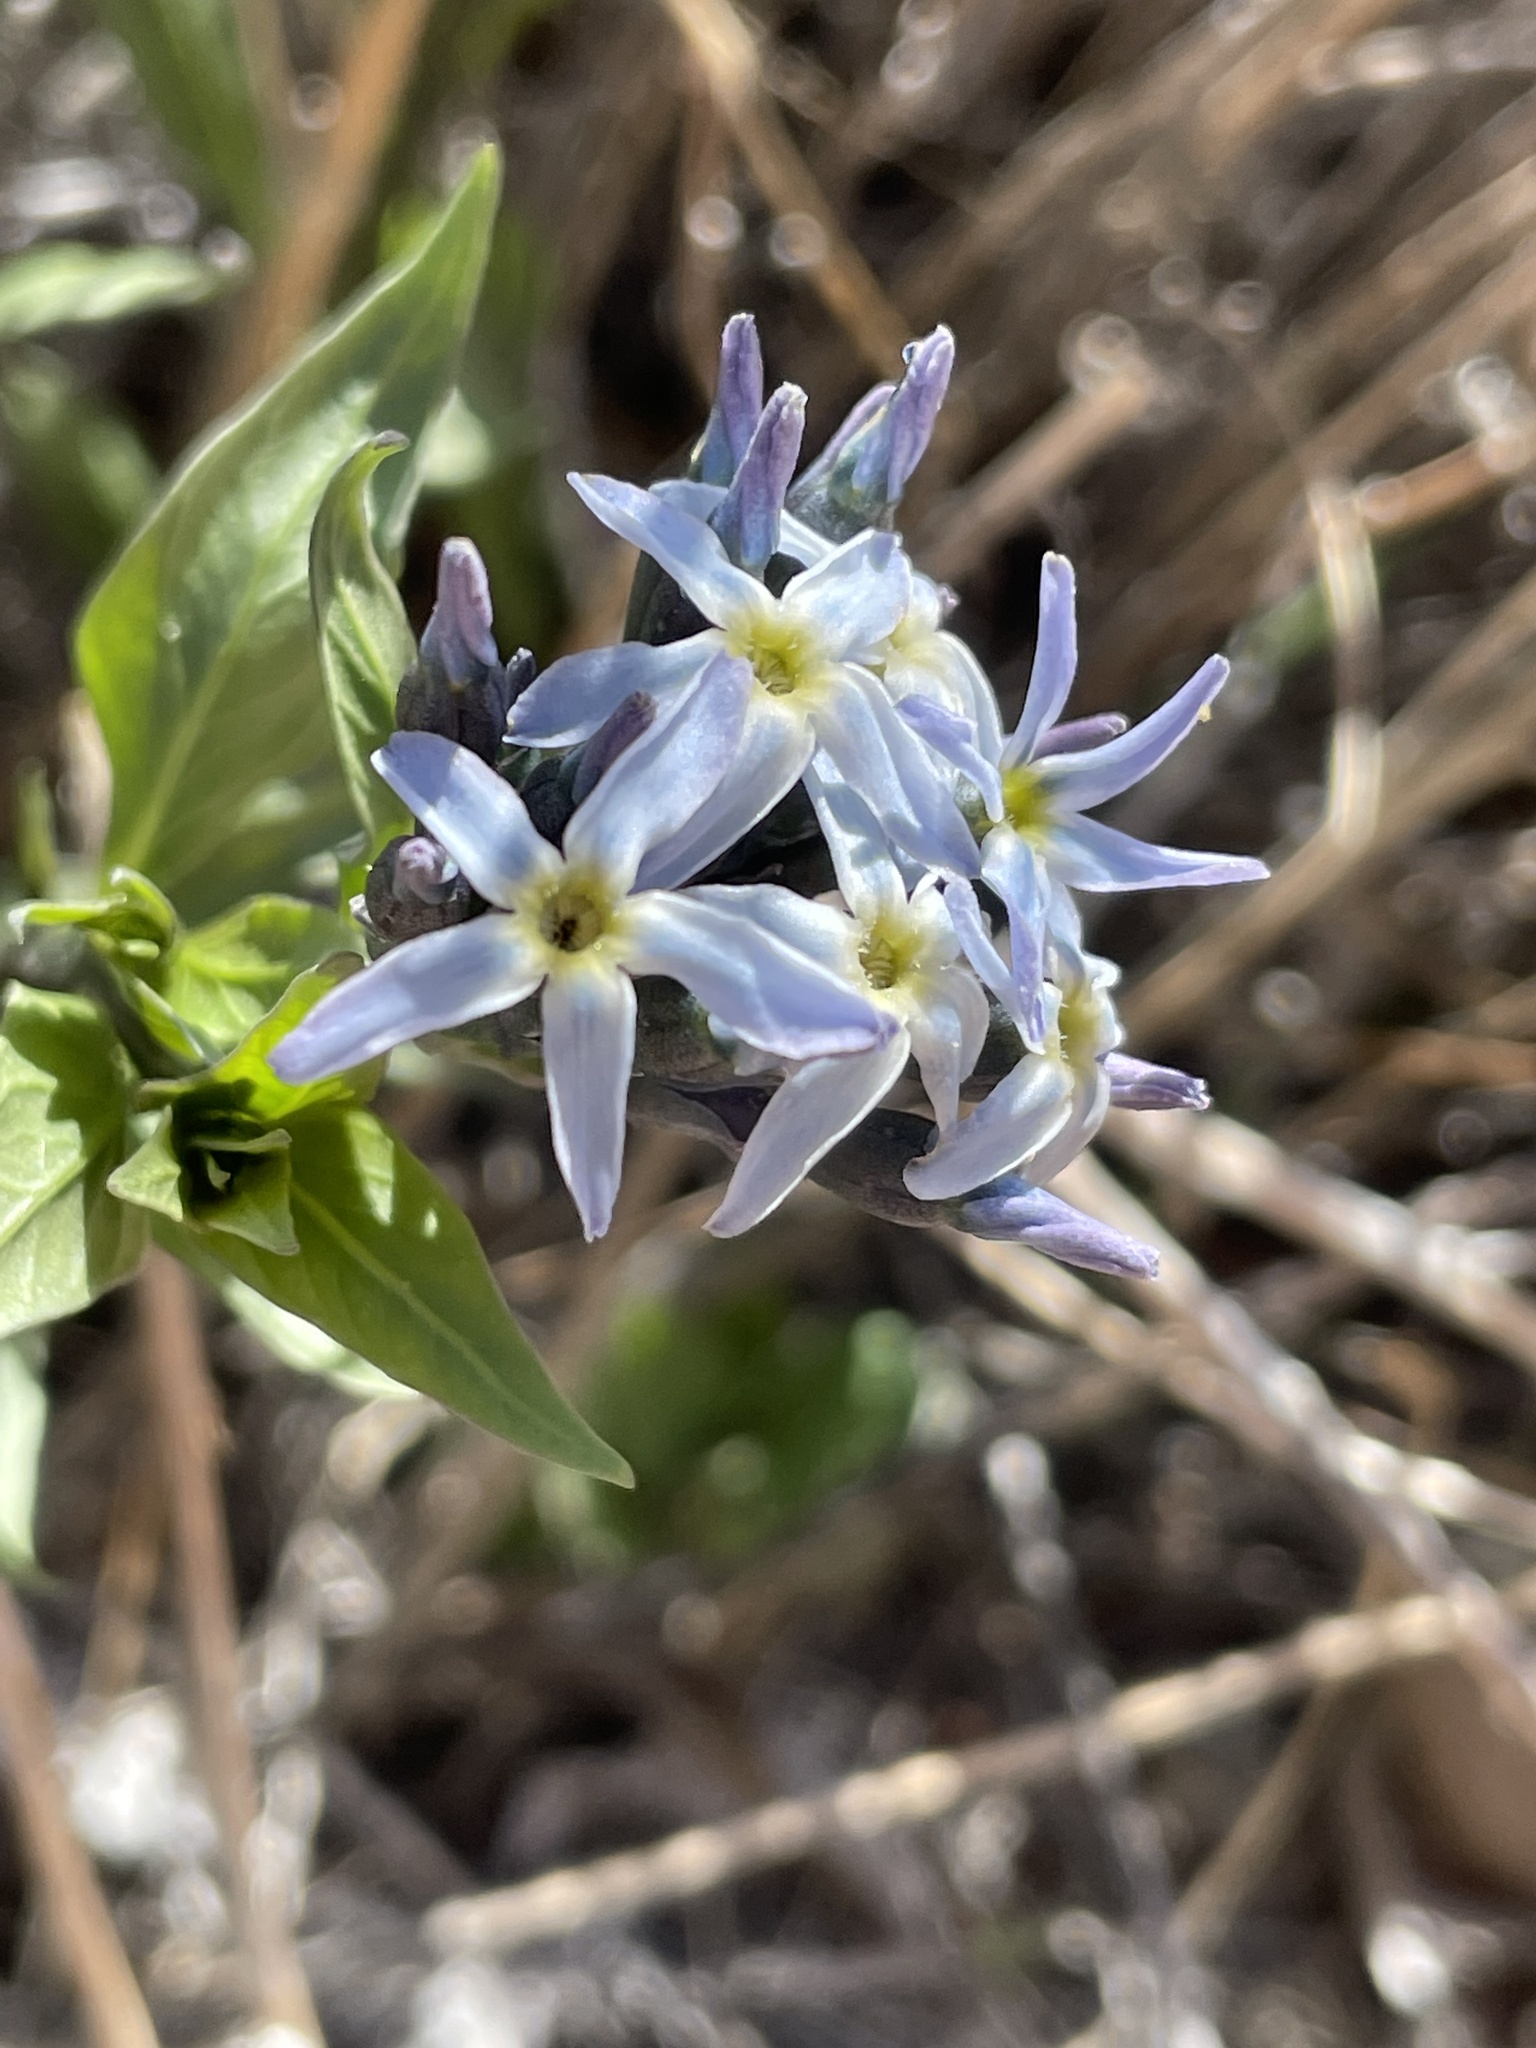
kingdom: Plantae
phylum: Tracheophyta
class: Magnoliopsida
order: Gentianales
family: Apocynaceae
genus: Amsonia
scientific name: Amsonia tomentosa
